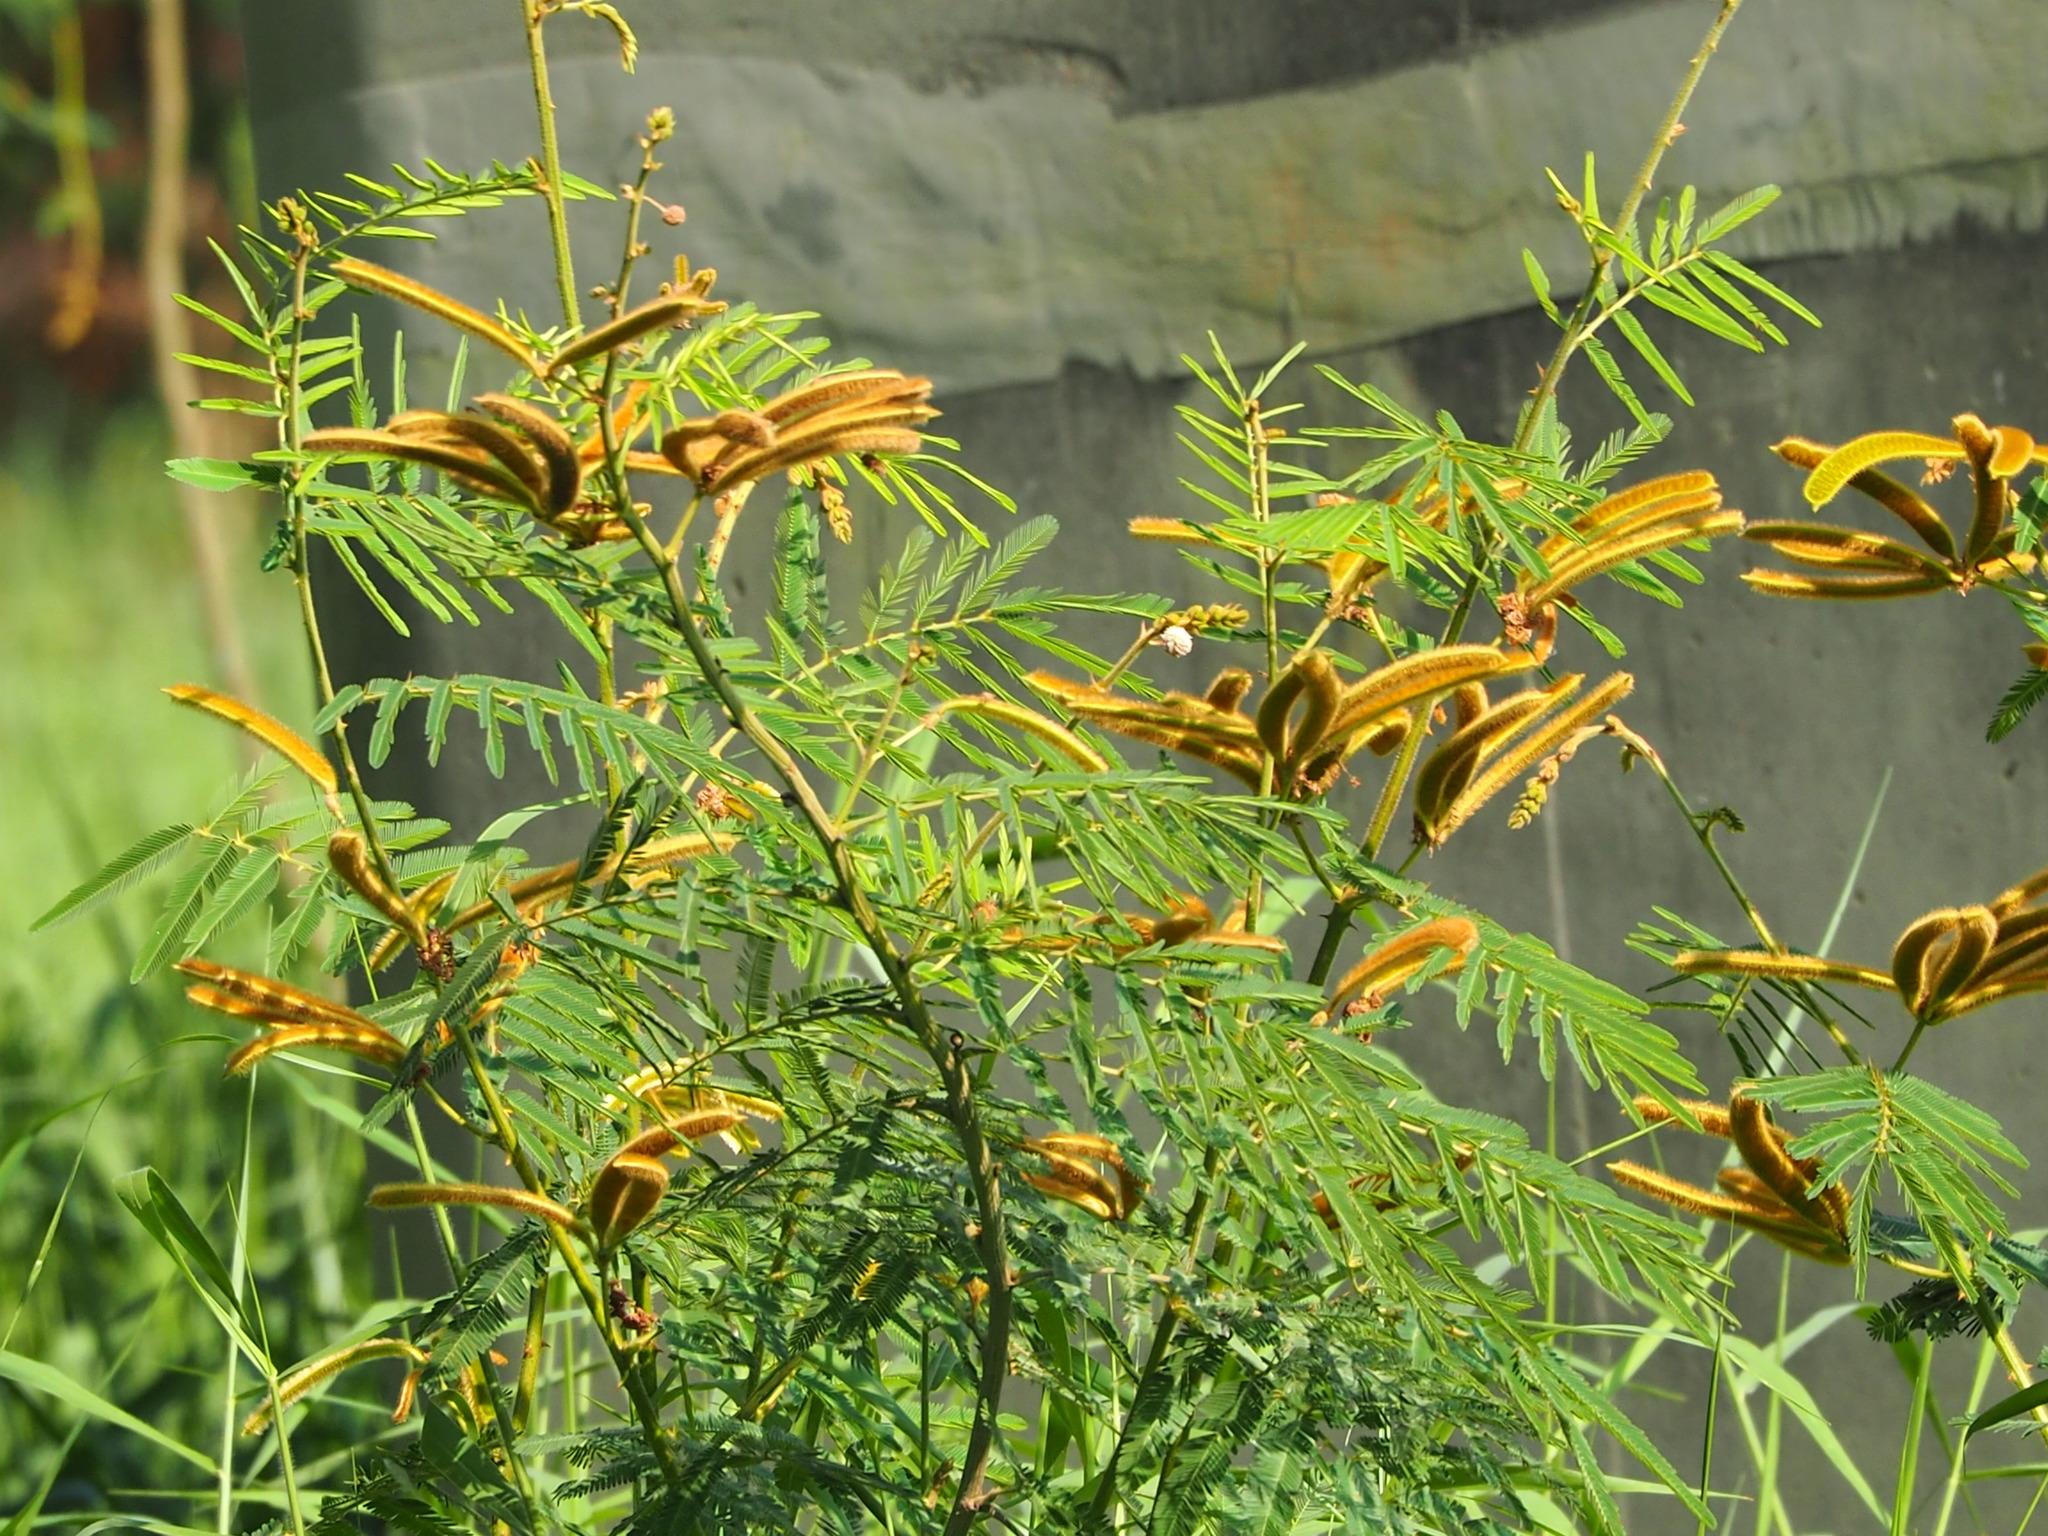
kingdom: Plantae
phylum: Tracheophyta
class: Magnoliopsida
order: Fabales
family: Fabaceae
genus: Mimosa
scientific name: Mimosa pigra
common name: Black mimosa
